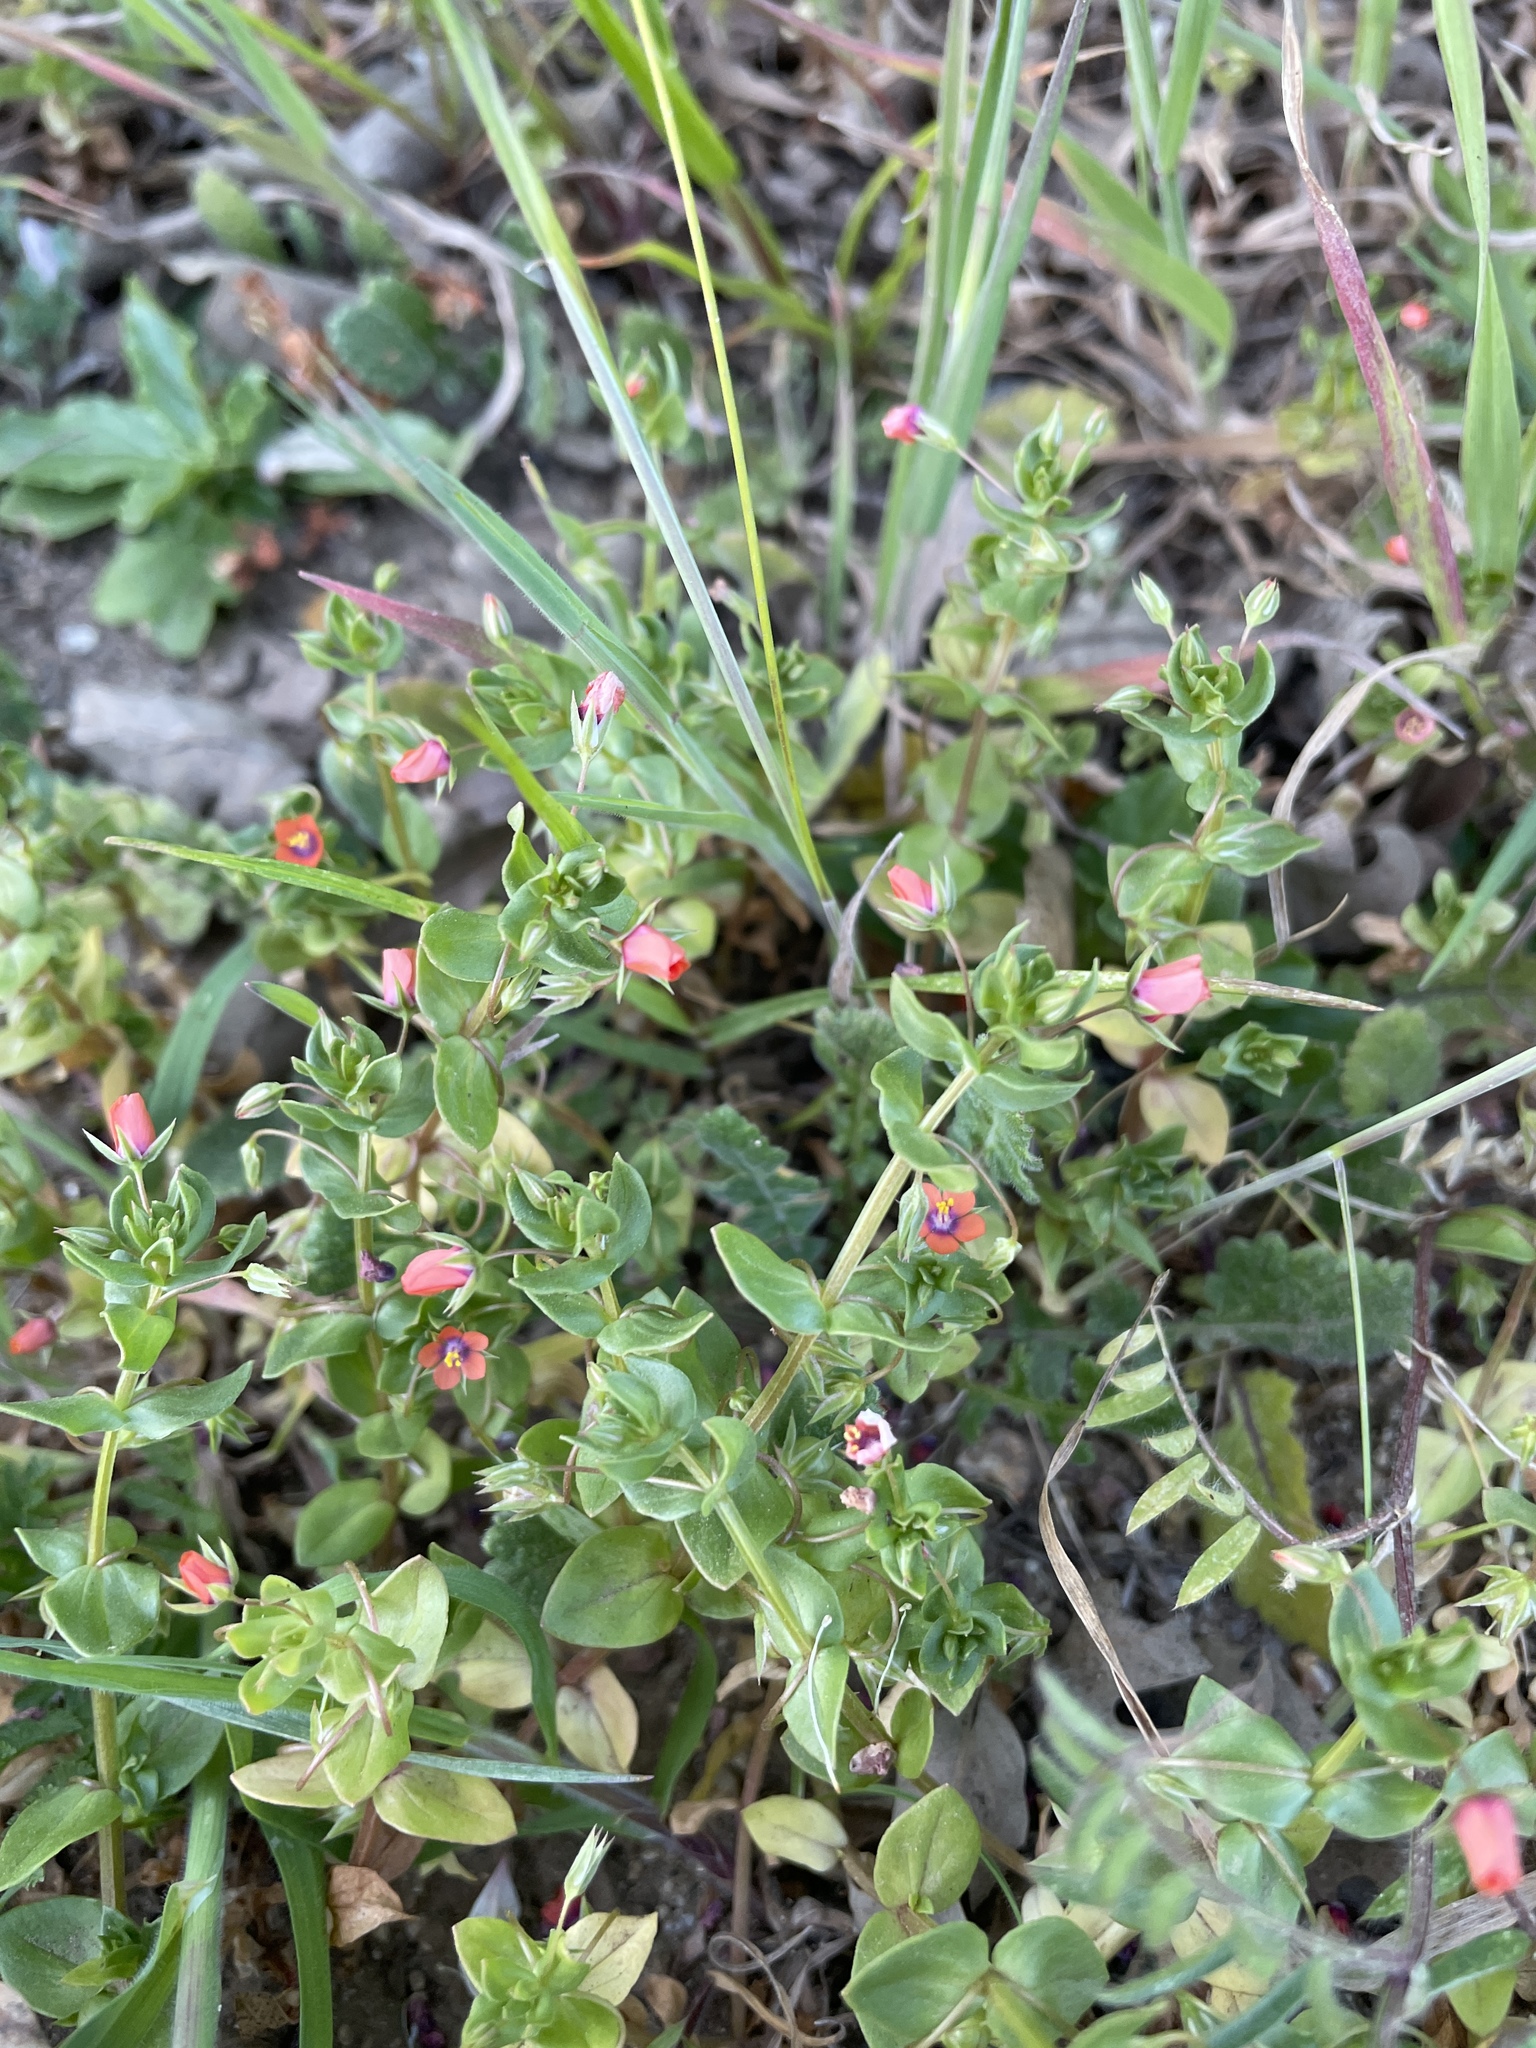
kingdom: Plantae
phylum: Tracheophyta
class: Magnoliopsida
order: Ericales
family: Primulaceae
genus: Lysimachia
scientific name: Lysimachia arvensis
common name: Scarlet pimpernel
